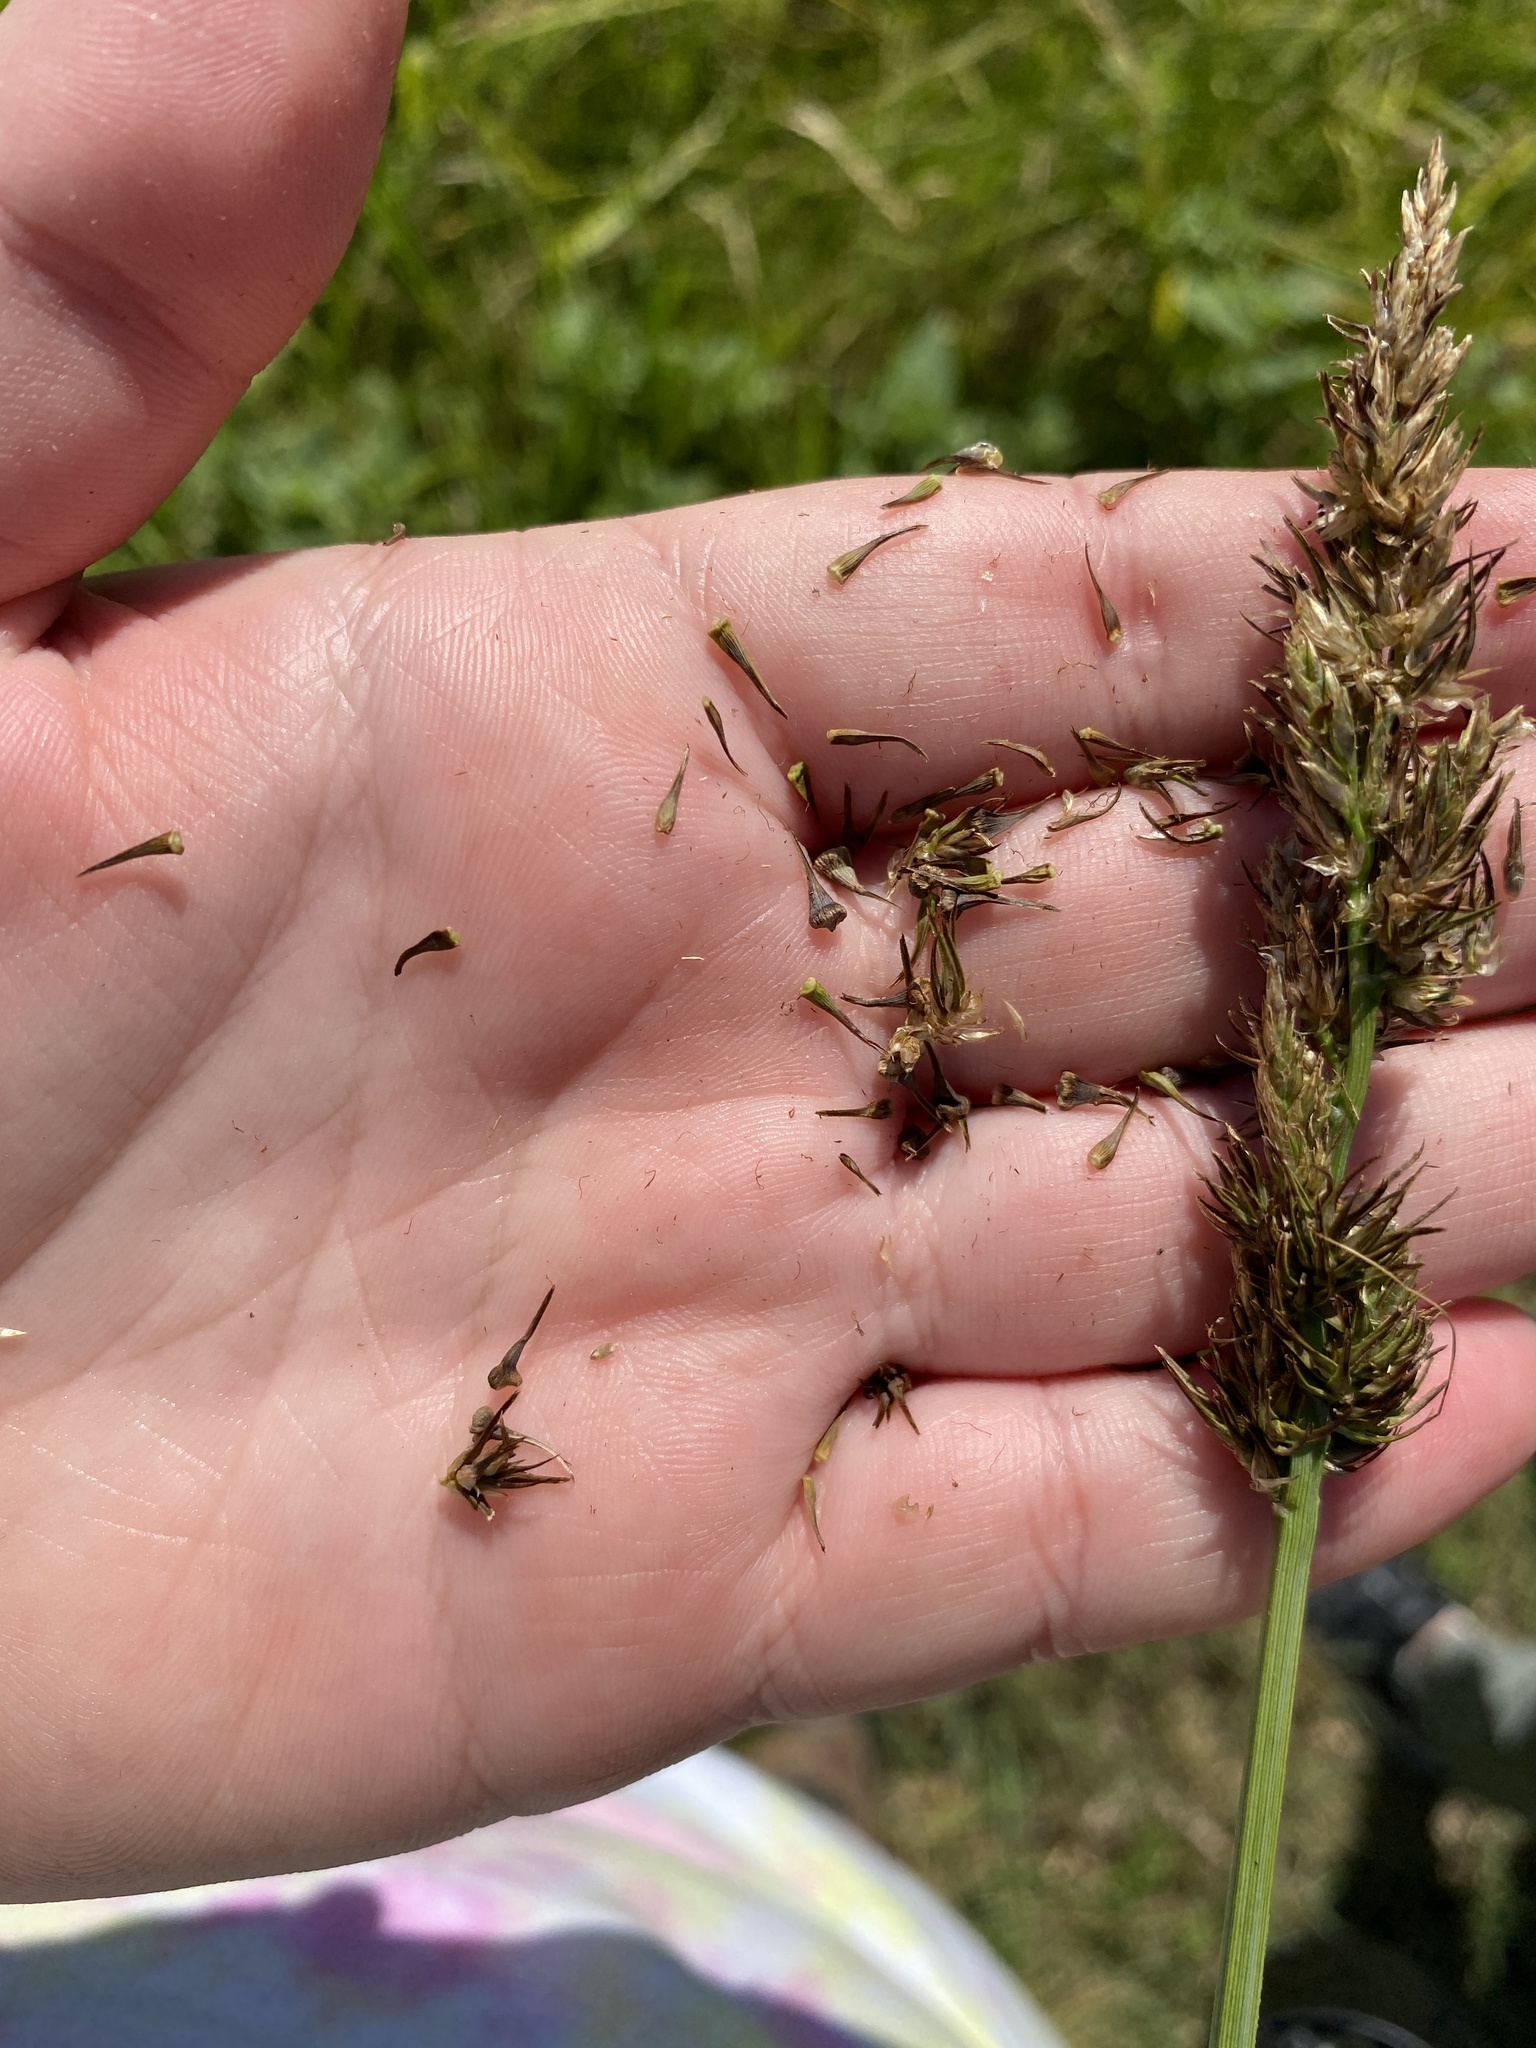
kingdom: Plantae
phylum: Tracheophyta
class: Liliopsida
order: Poales
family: Cyperaceae
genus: Carex
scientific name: Carex crus-corvi
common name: Crow-spur sedge
